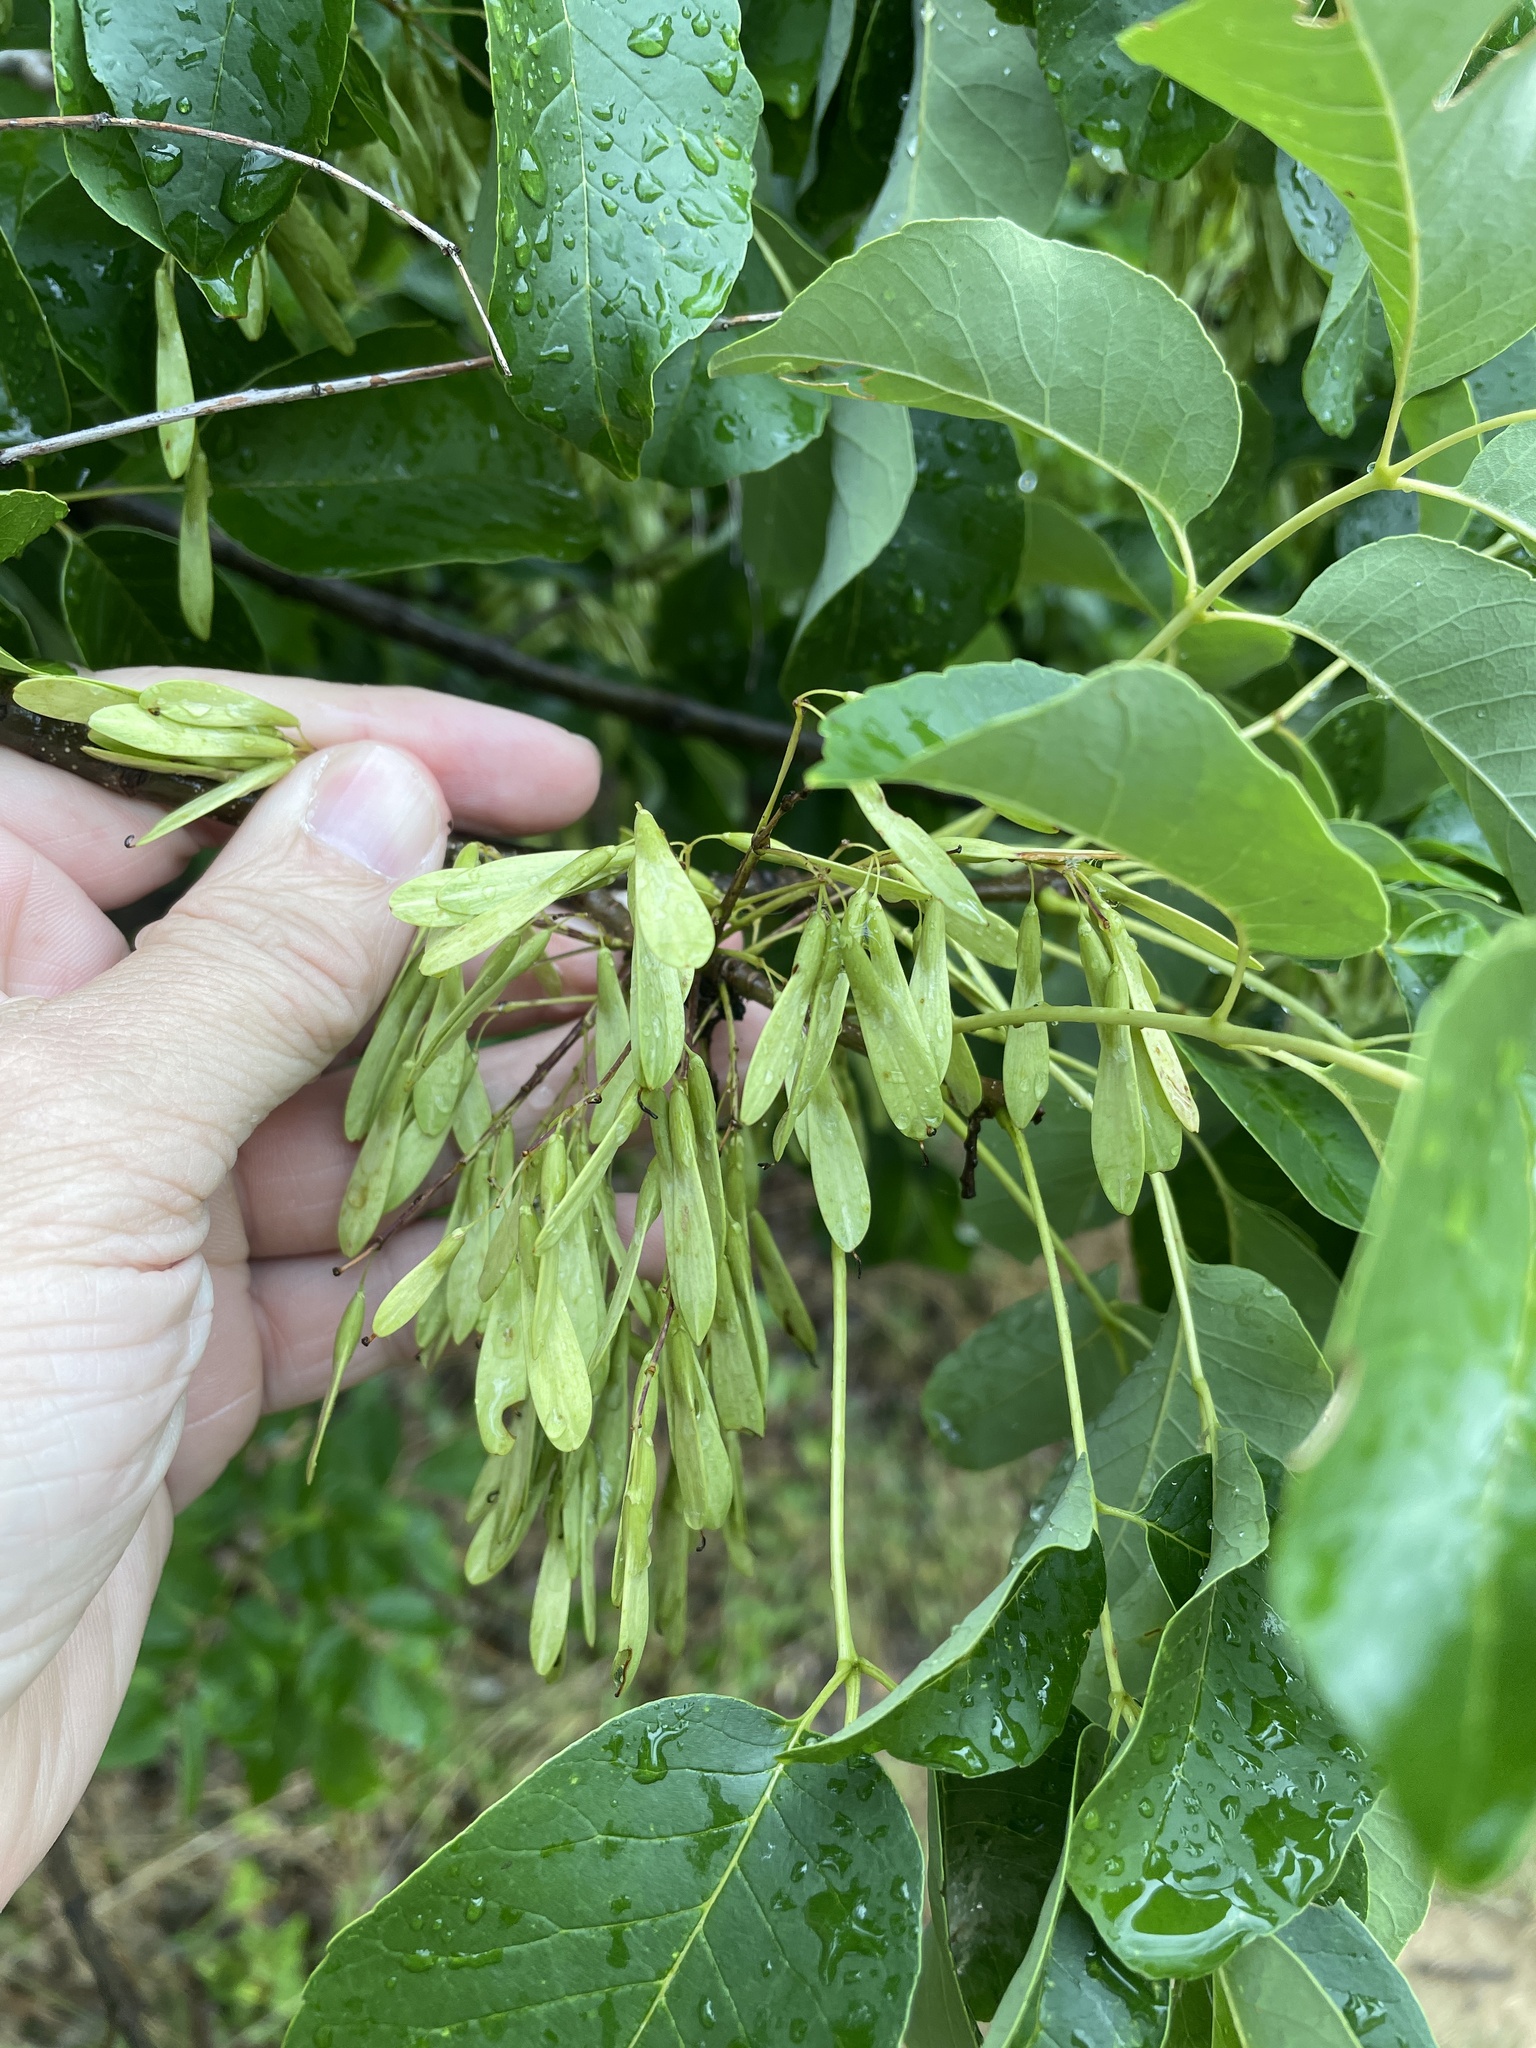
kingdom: Plantae
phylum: Tracheophyta
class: Magnoliopsida
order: Lamiales
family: Oleaceae
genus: Fraxinus
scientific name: Fraxinus albicans
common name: Texas ash
